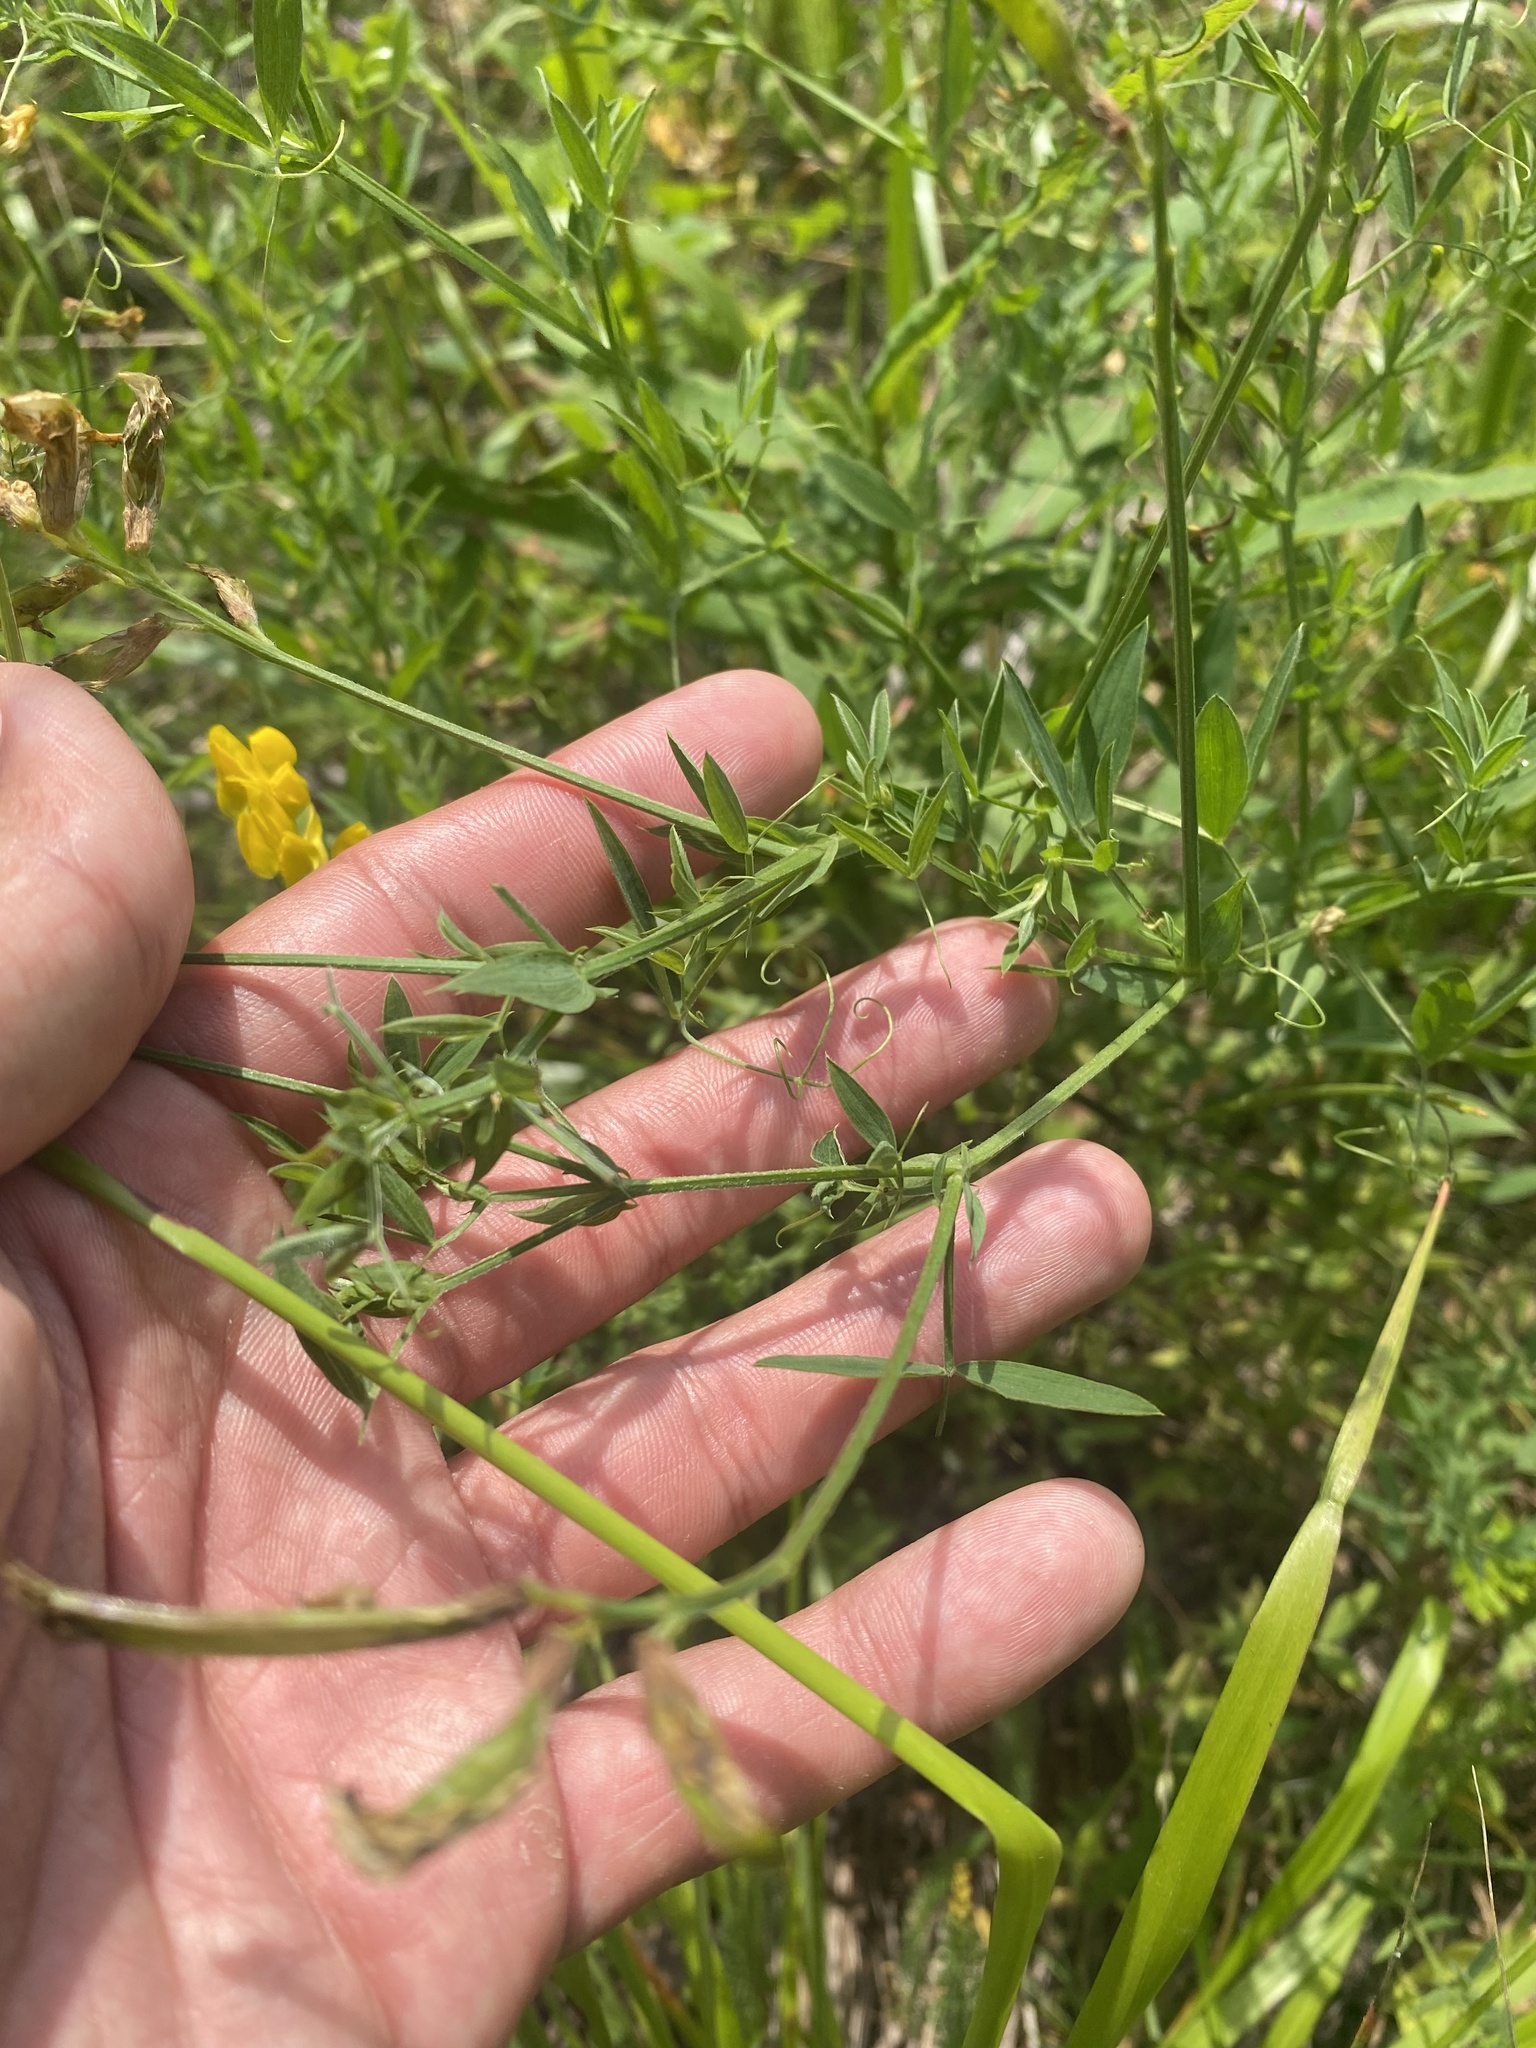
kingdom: Plantae
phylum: Tracheophyta
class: Magnoliopsida
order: Fabales
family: Fabaceae
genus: Lathyrus
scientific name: Lathyrus pratensis
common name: Meadow vetchling
